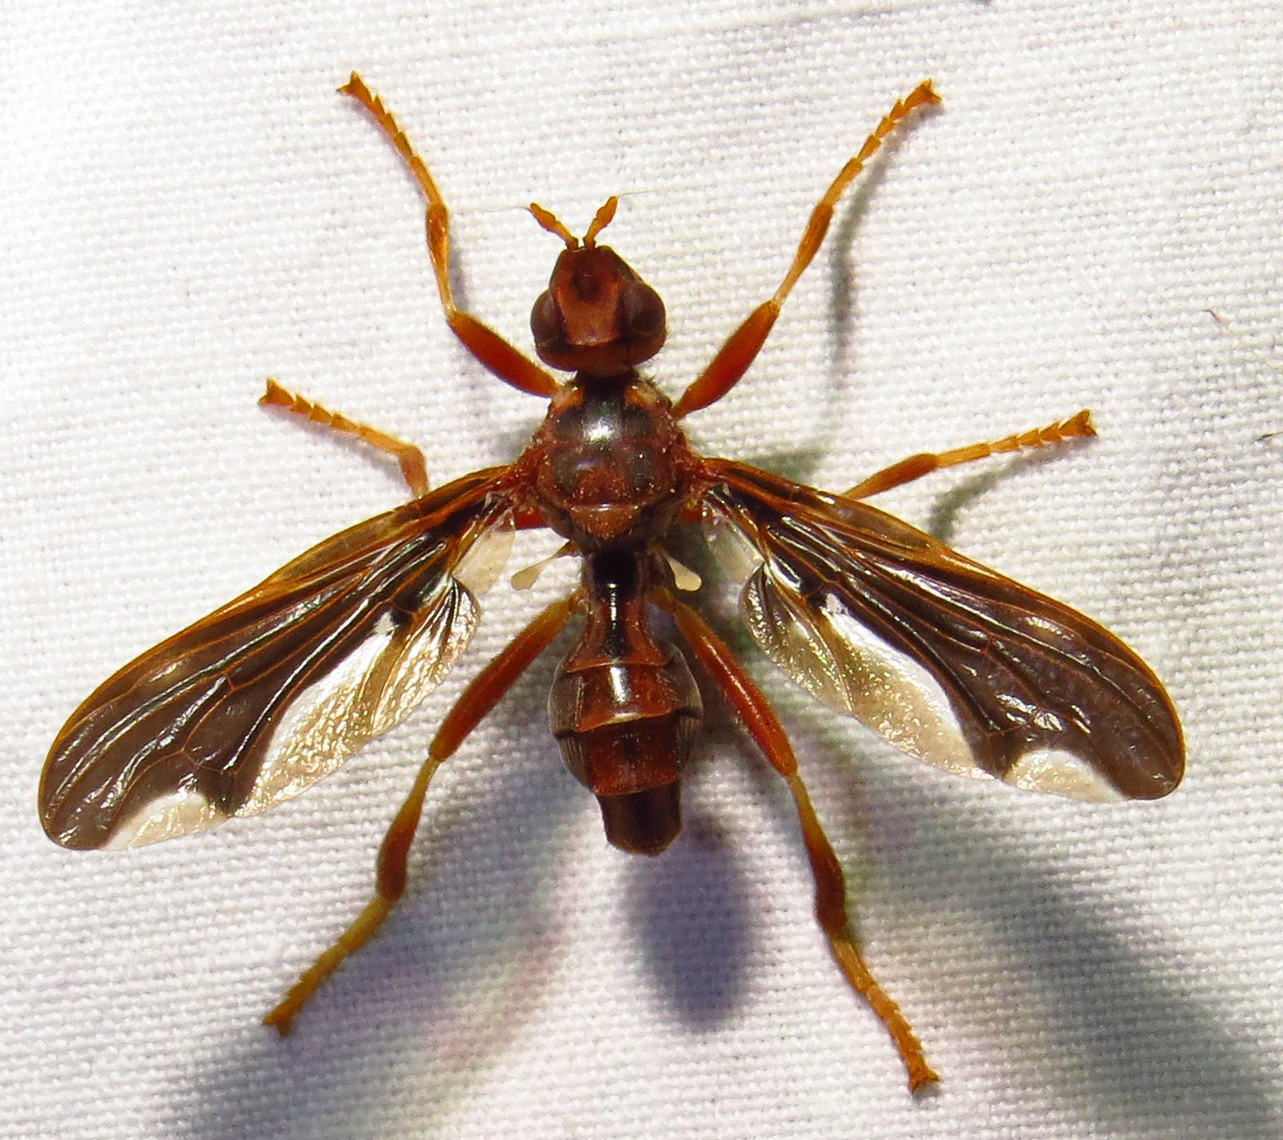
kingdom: Animalia
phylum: Arthropoda
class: Insecta
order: Diptera
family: Pyrgotidae
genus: Pyrgota
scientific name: Pyrgota undata
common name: Waved light fly
